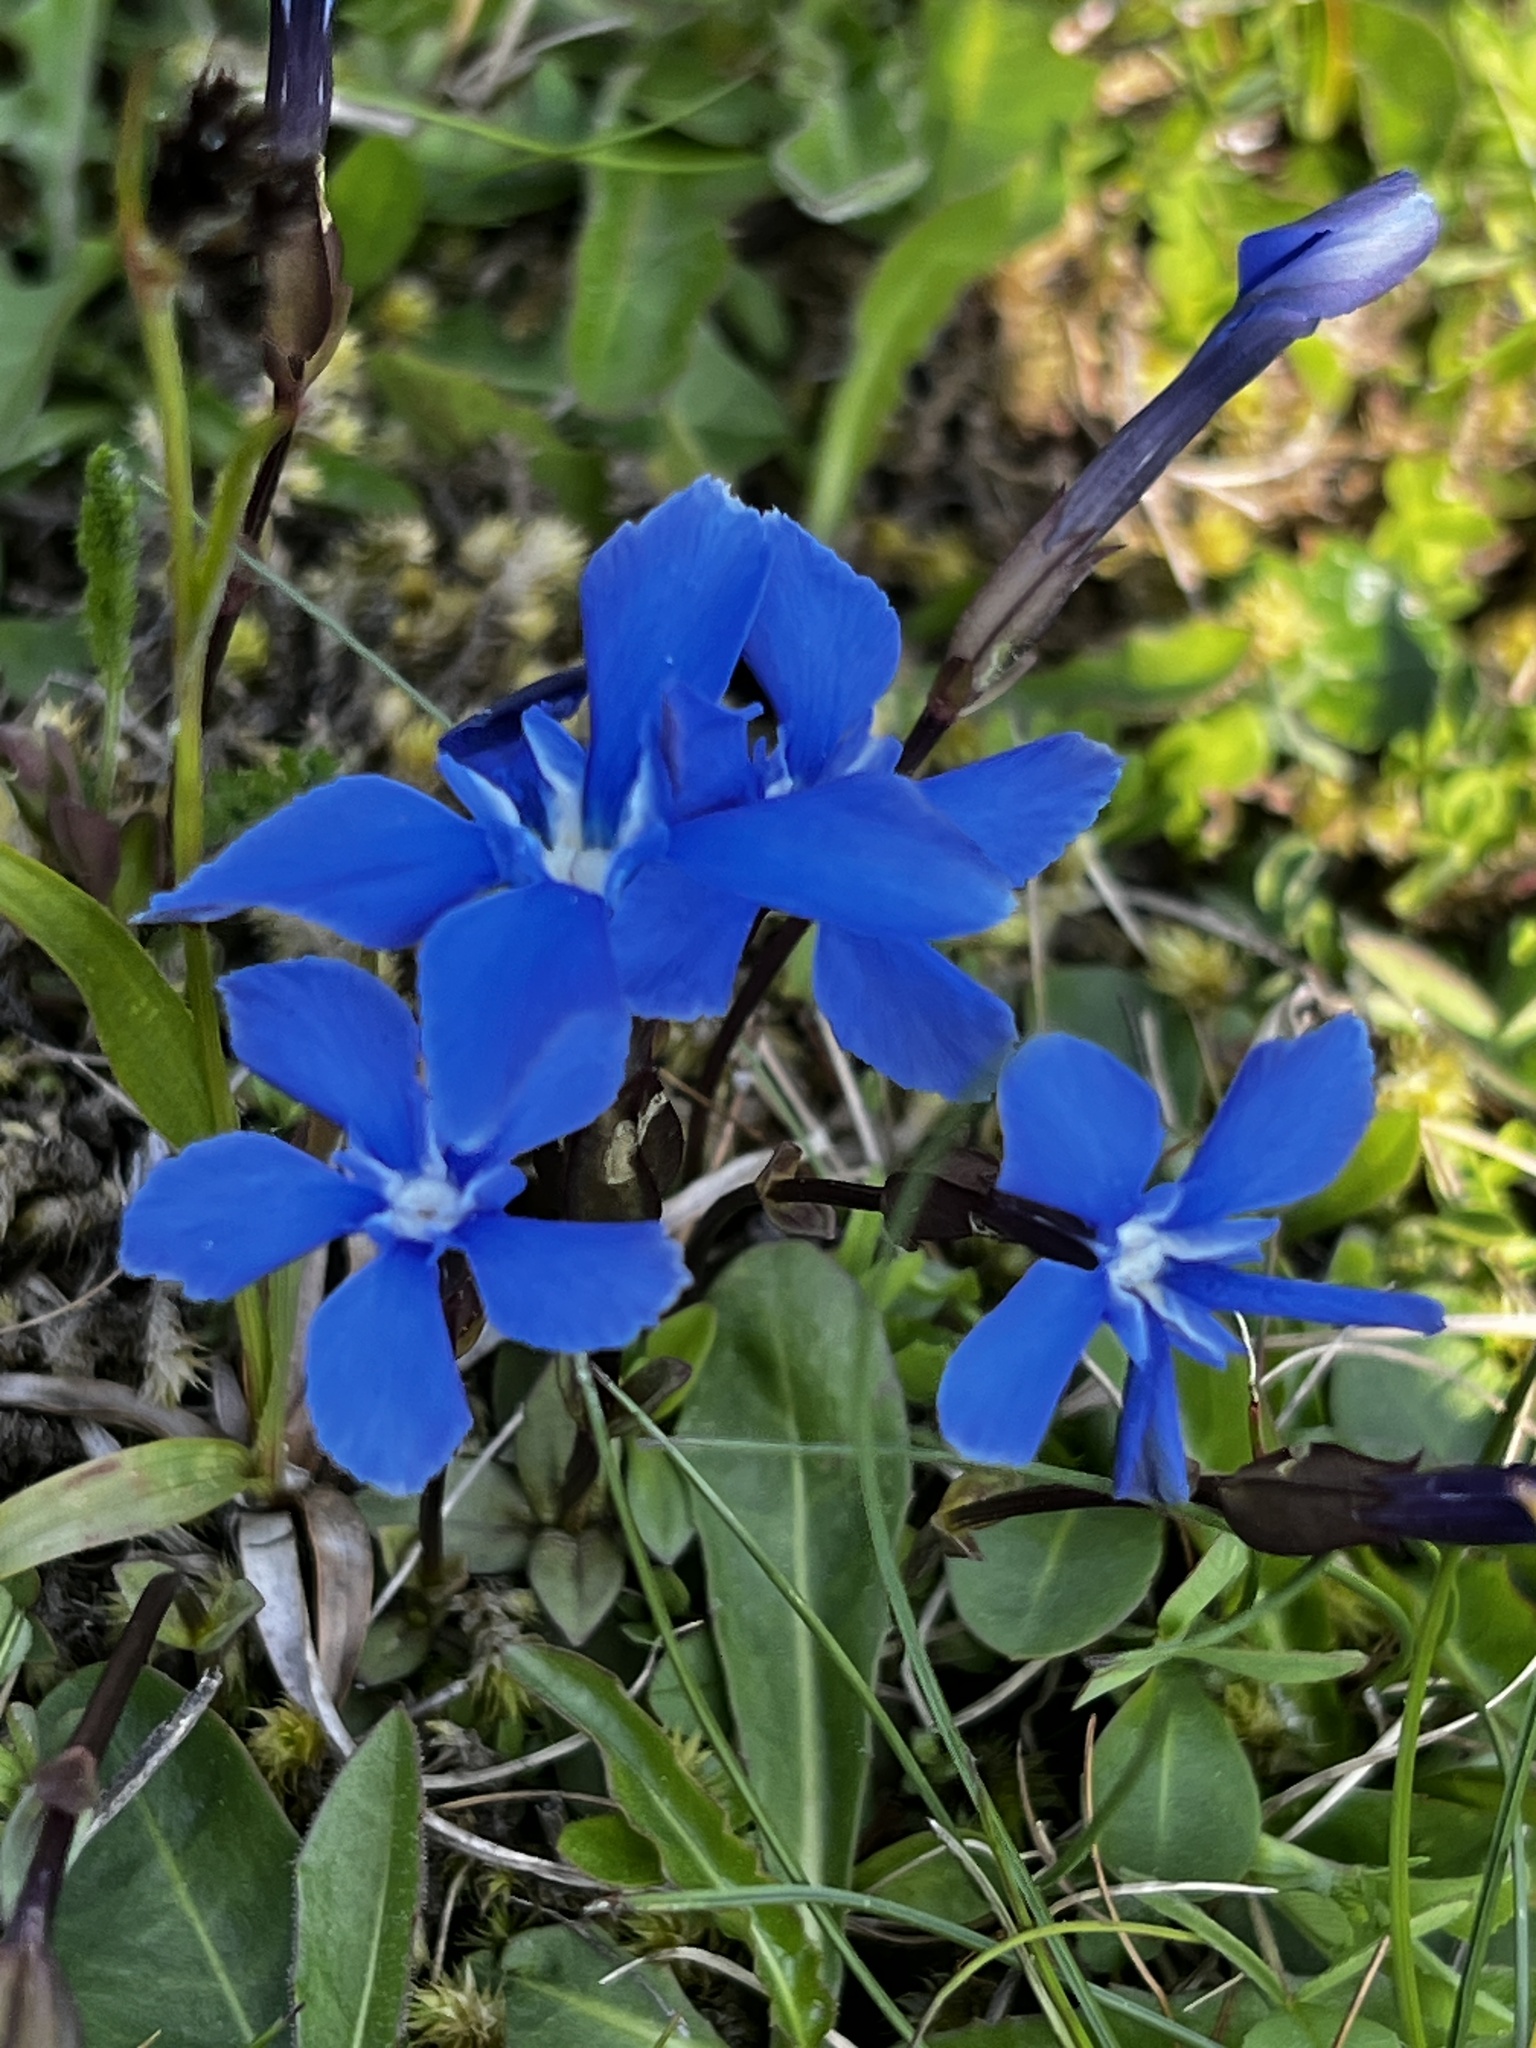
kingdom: Plantae
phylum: Tracheophyta
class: Magnoliopsida
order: Gentianales
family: Gentianaceae
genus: Gentiana
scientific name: Gentiana verna
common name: Spring gentian
